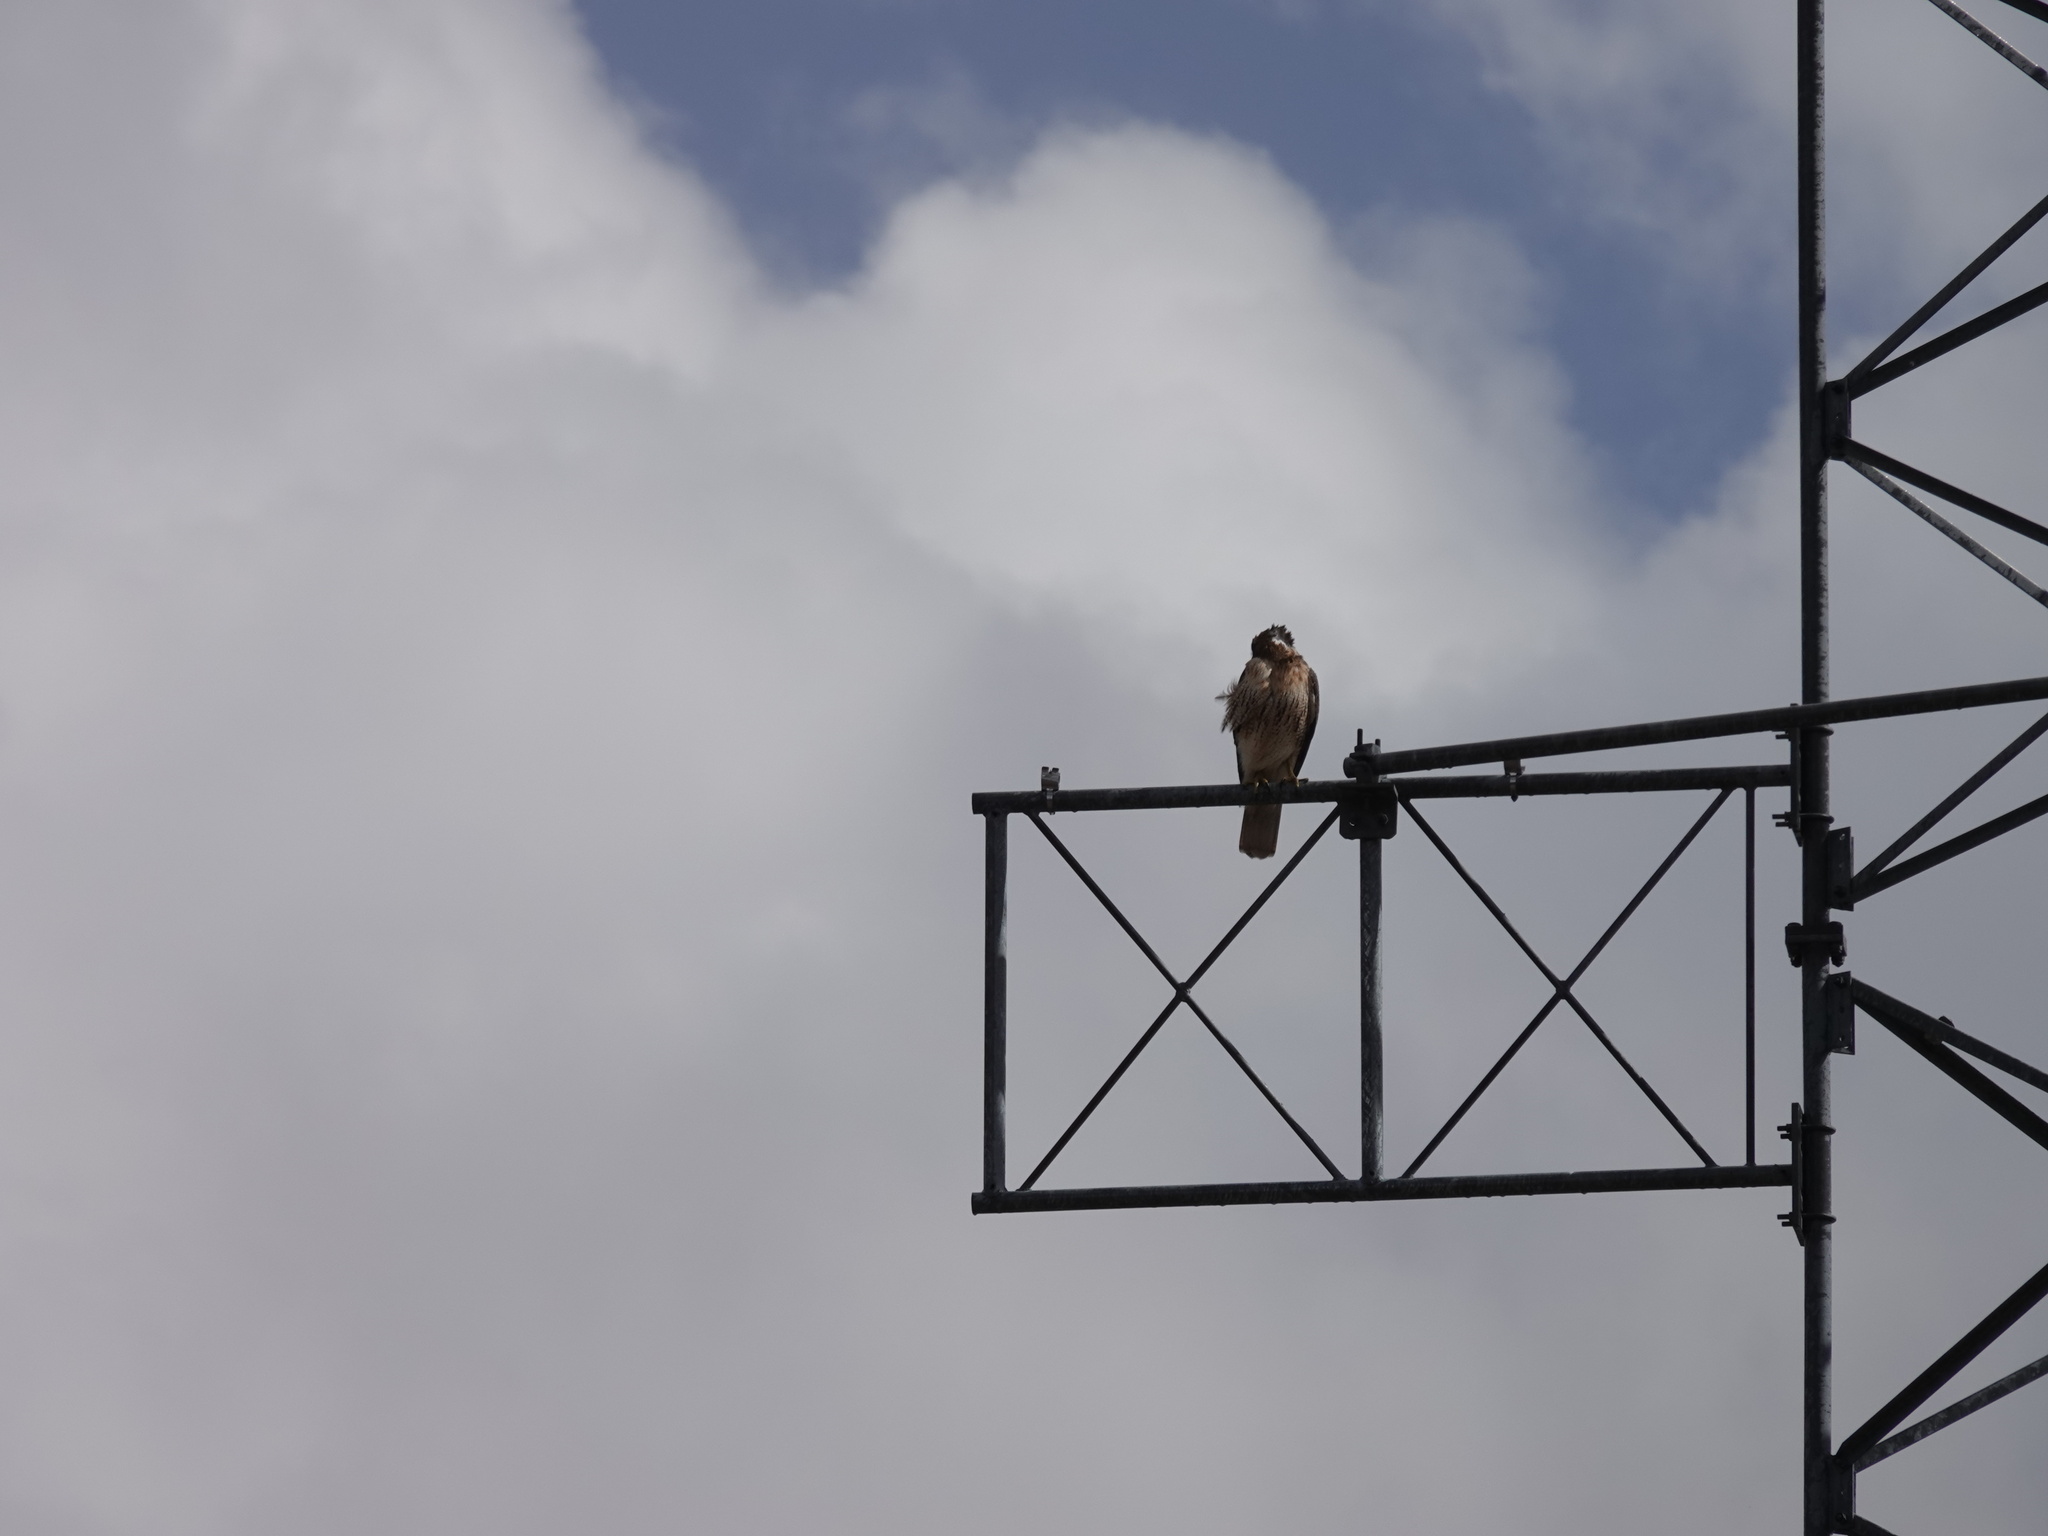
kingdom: Animalia
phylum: Chordata
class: Aves
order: Accipitriformes
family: Accipitridae
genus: Buteo
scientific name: Buteo jamaicensis
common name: Red-tailed hawk
